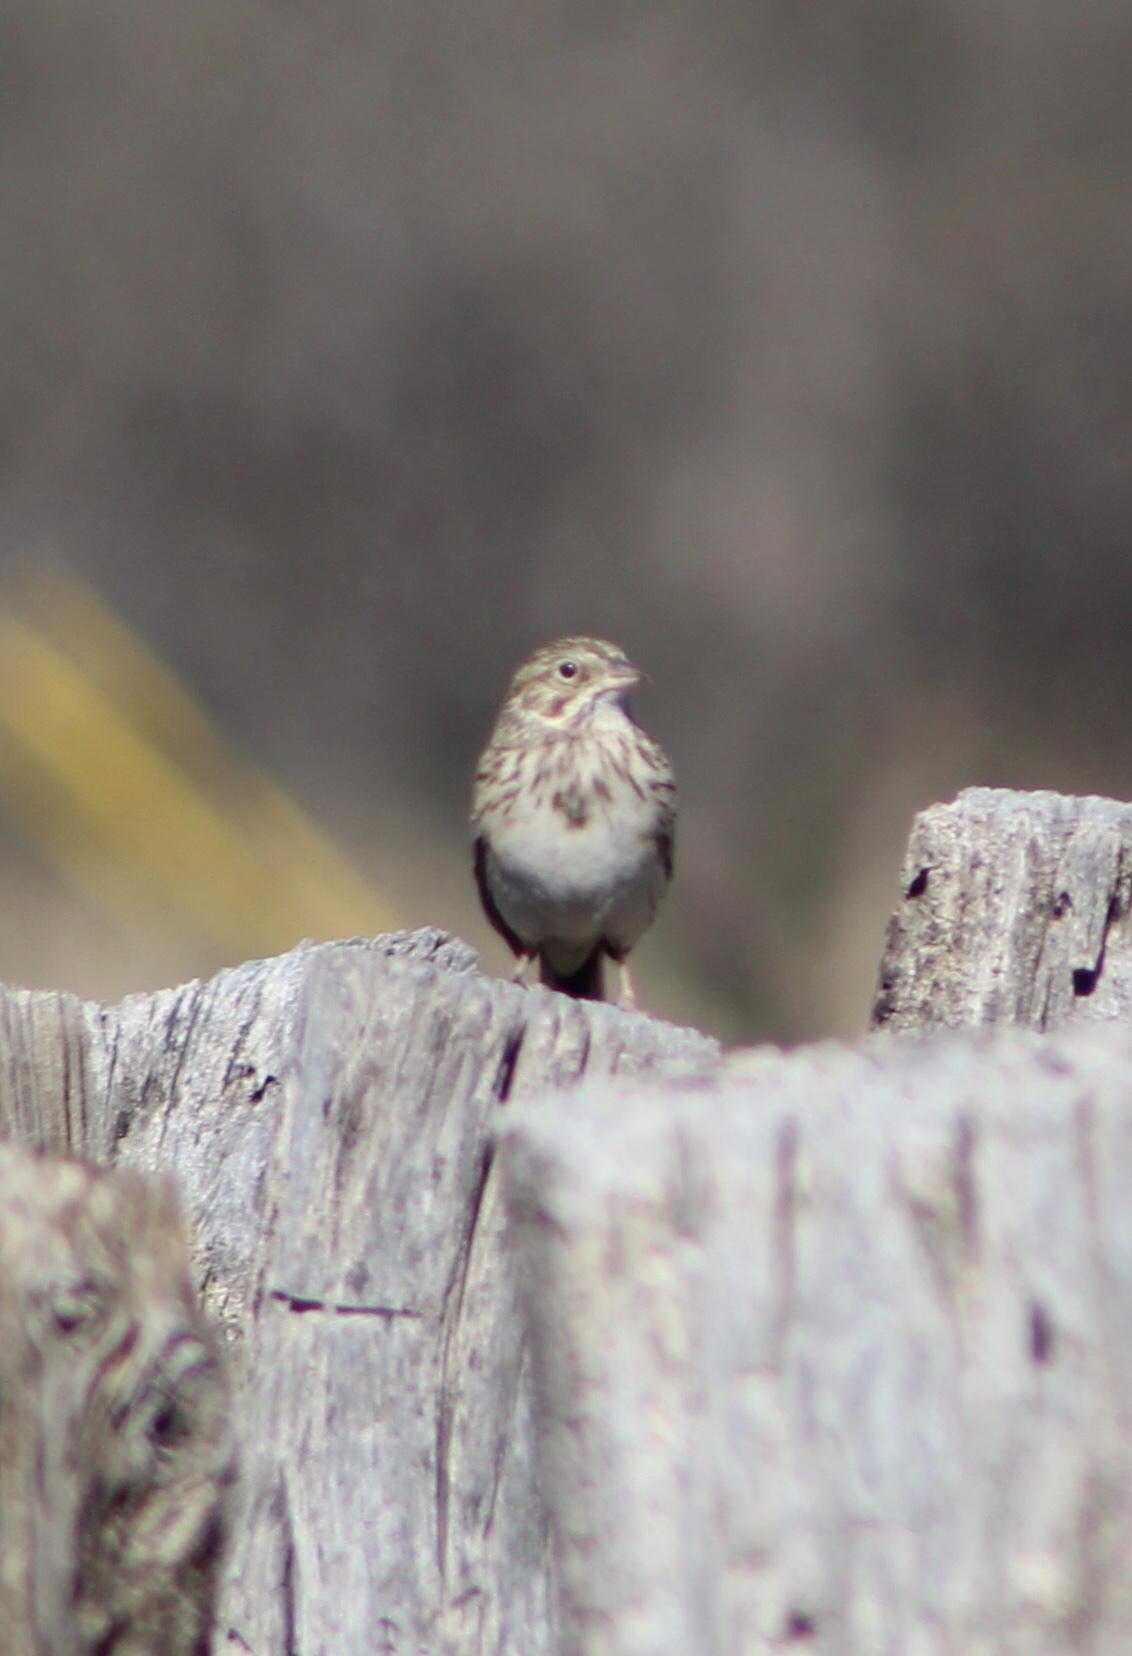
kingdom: Animalia
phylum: Chordata
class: Aves
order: Passeriformes
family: Passerellidae
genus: Pooecetes
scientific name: Pooecetes gramineus
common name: Vesper sparrow
